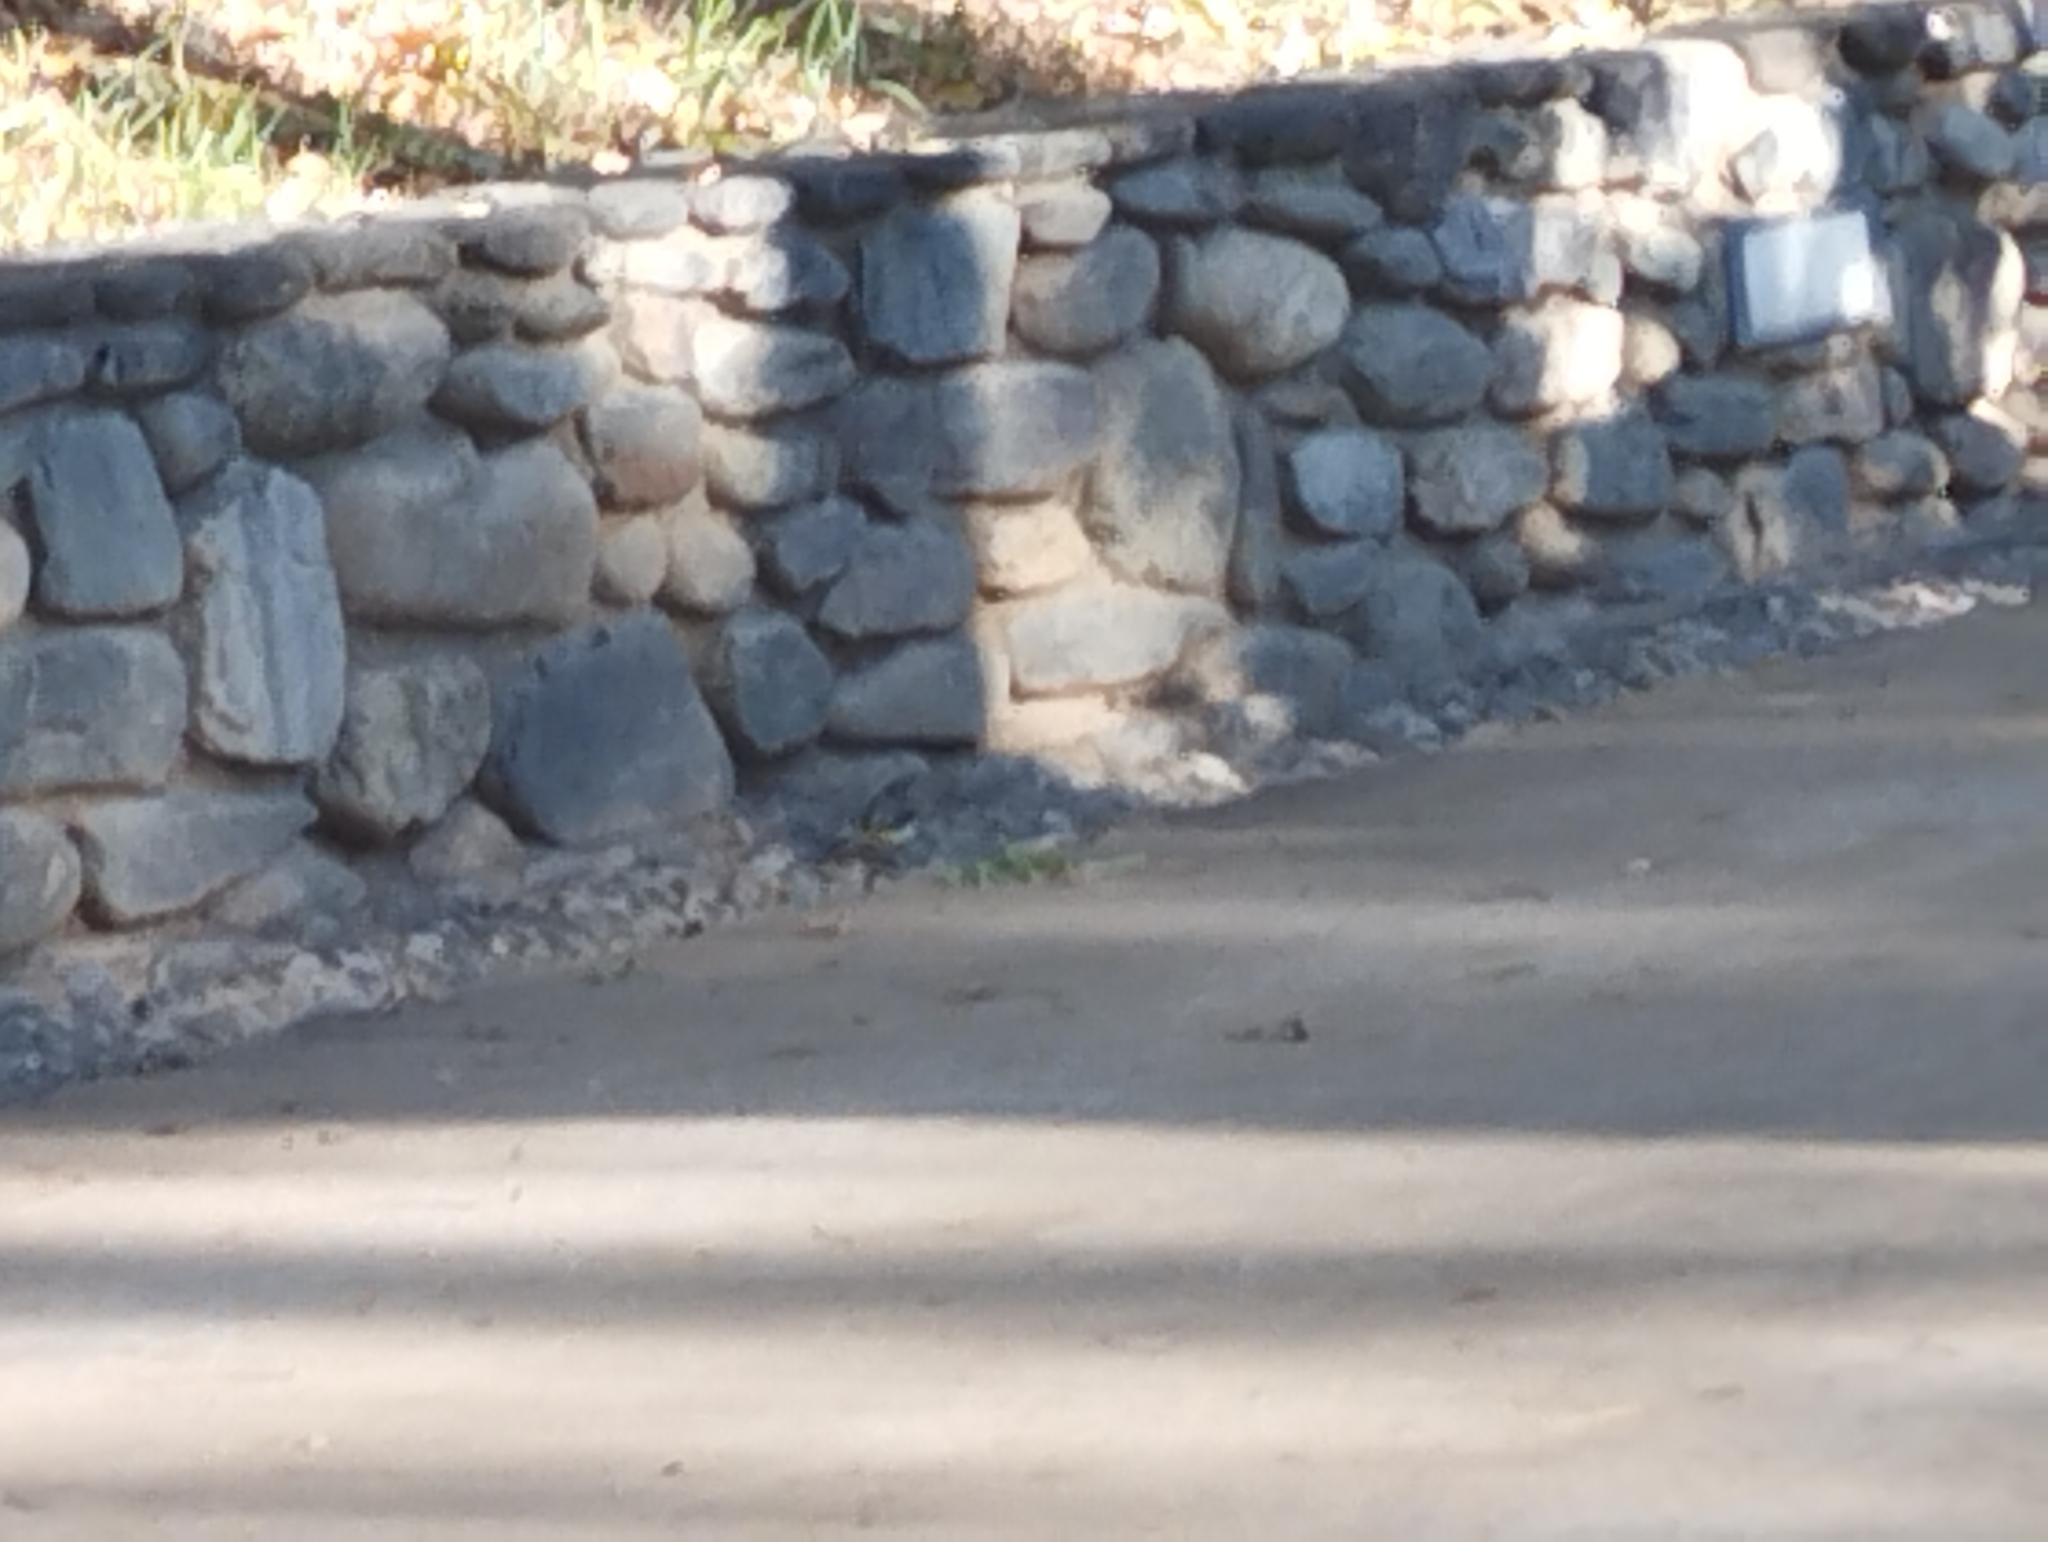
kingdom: Animalia
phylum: Chordata
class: Aves
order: Passeriformes
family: Motacillidae
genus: Motacilla
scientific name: Motacilla cinerea
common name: Grey wagtail
